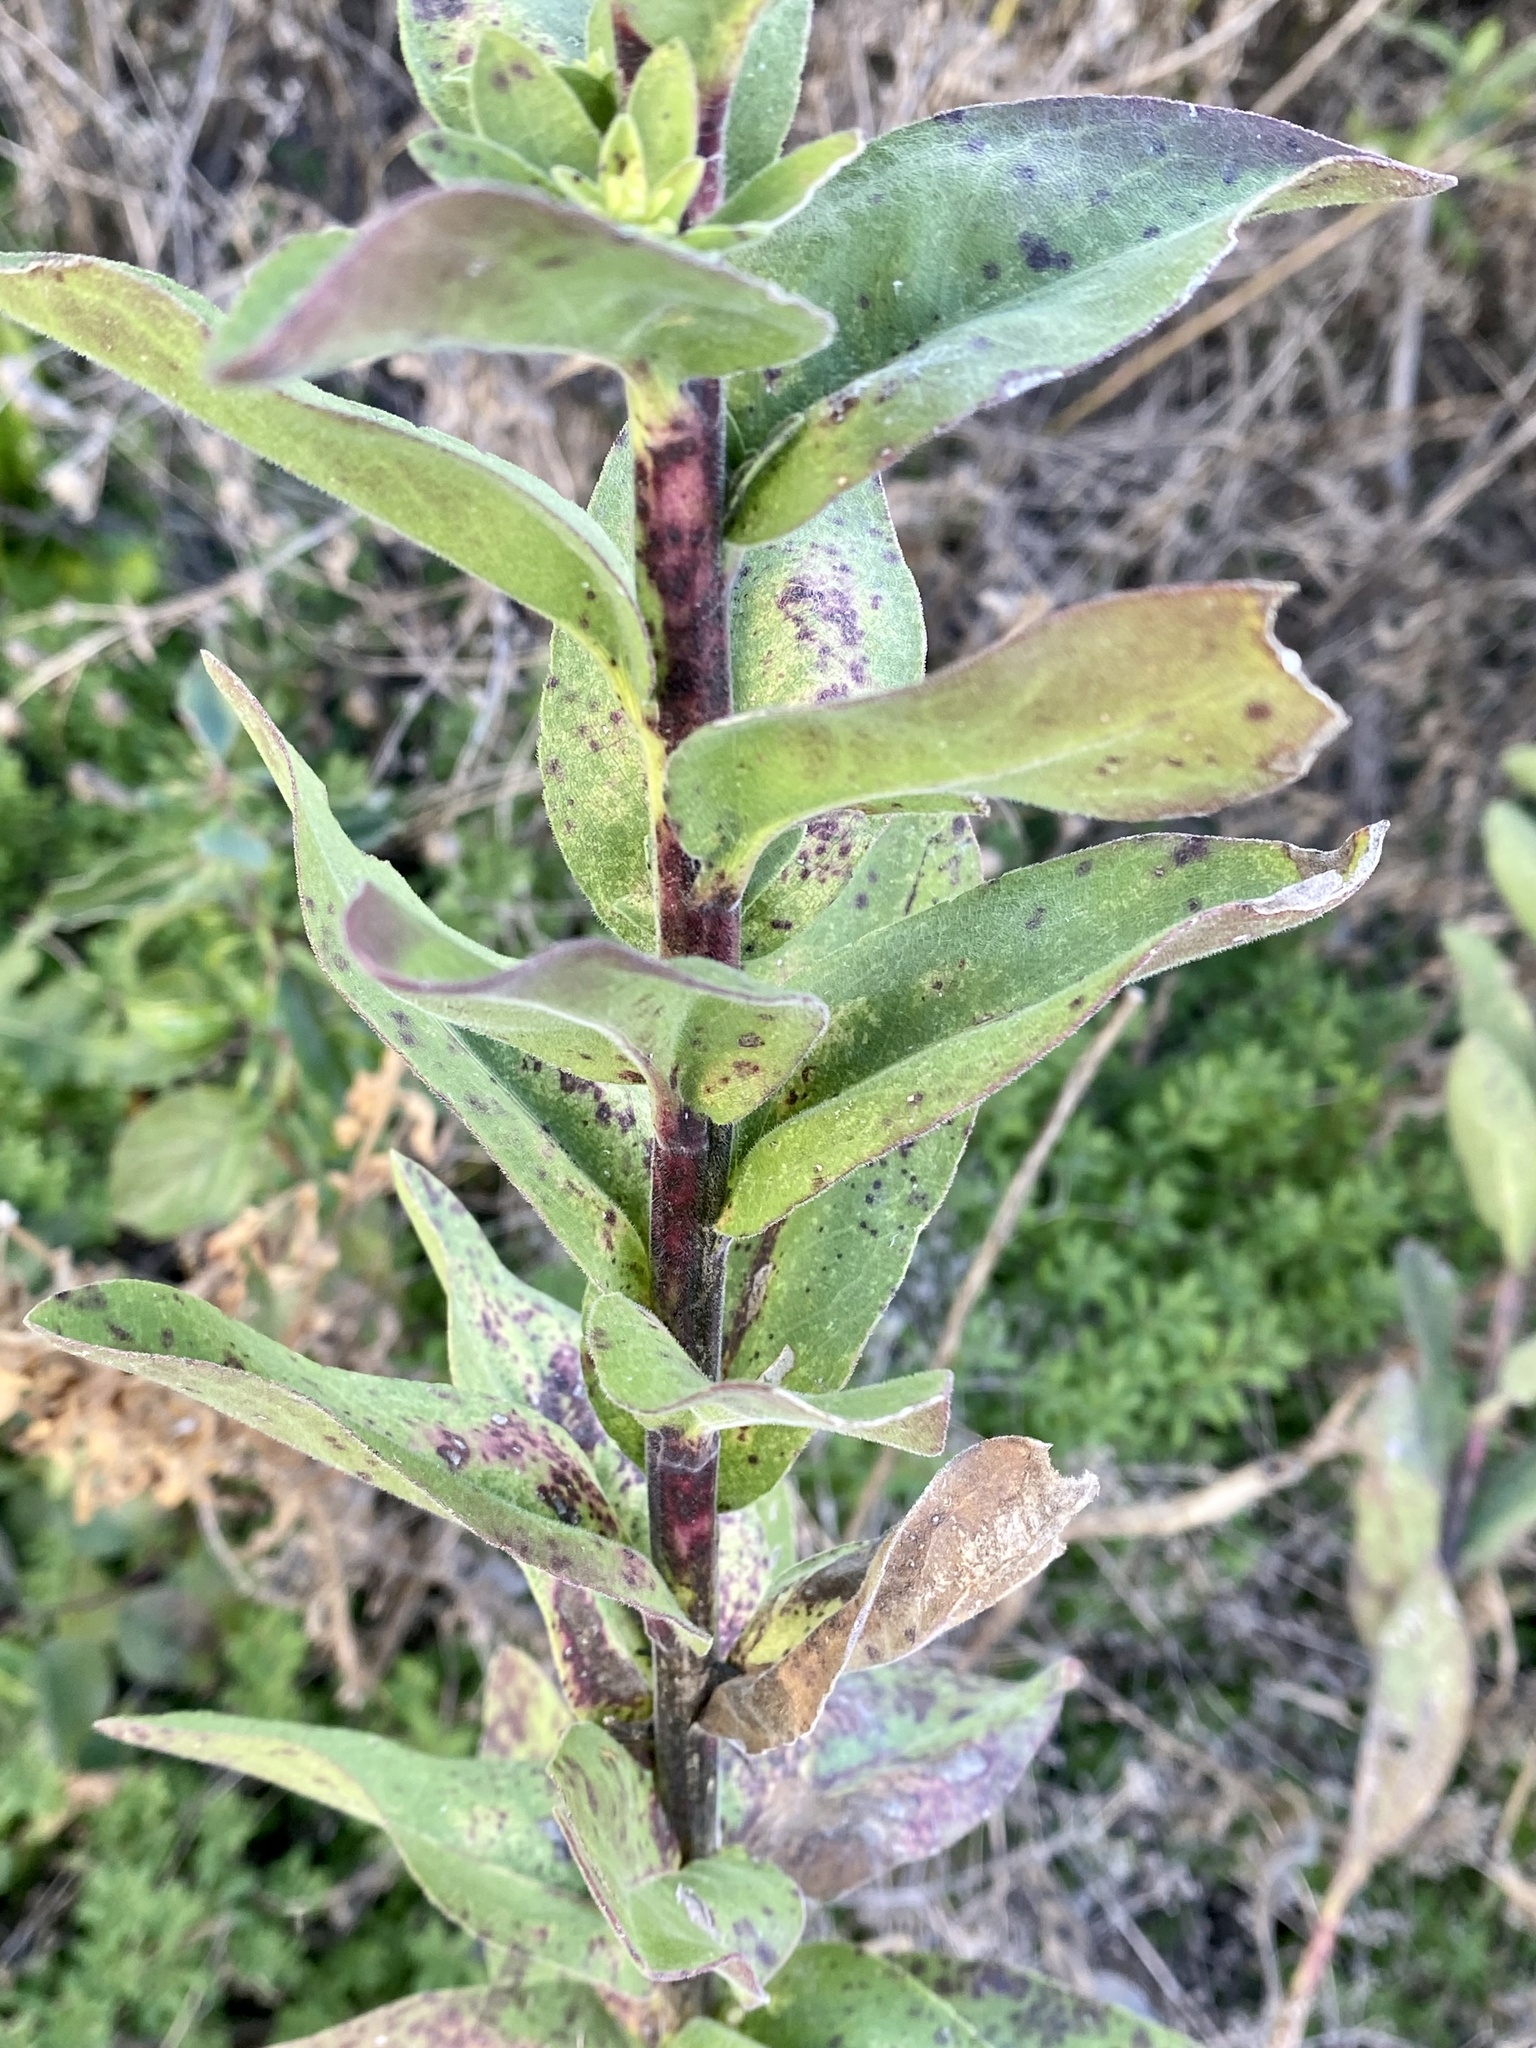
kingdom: Plantae
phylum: Tracheophyta
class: Magnoliopsida
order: Asterales
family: Asteraceae
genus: Solidago
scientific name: Solidago rigida
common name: Rigid goldenrod
